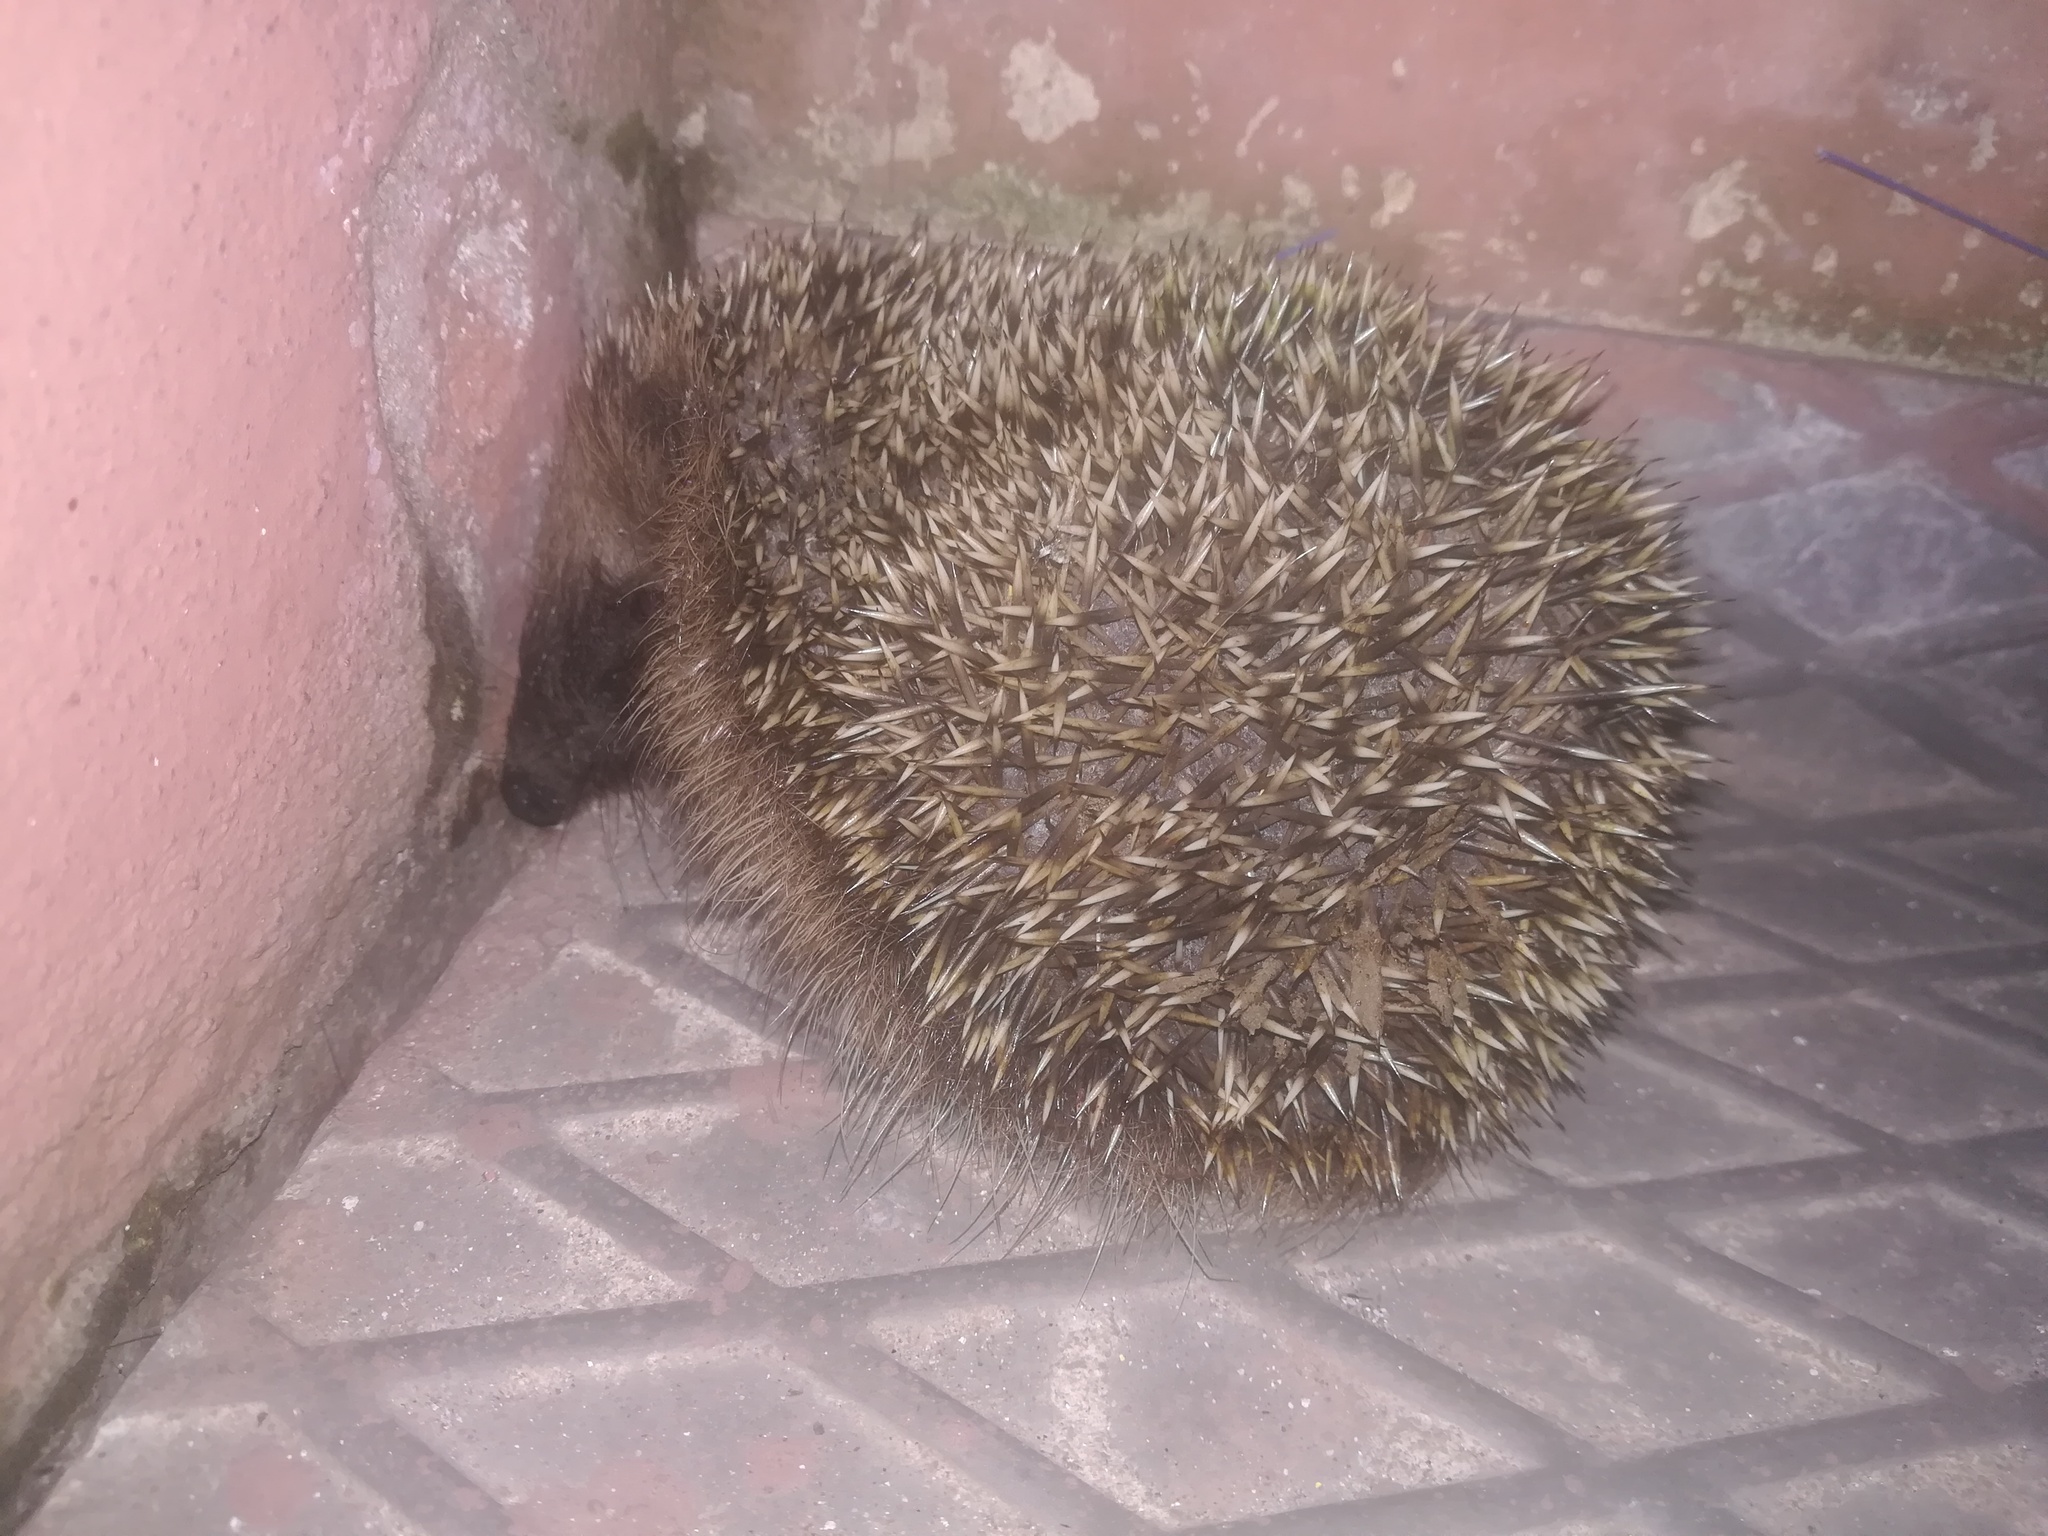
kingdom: Animalia
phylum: Chordata
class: Mammalia
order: Erinaceomorpha
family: Erinaceidae
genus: Erinaceus
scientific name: Erinaceus europaeus
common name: West european hedgehog
